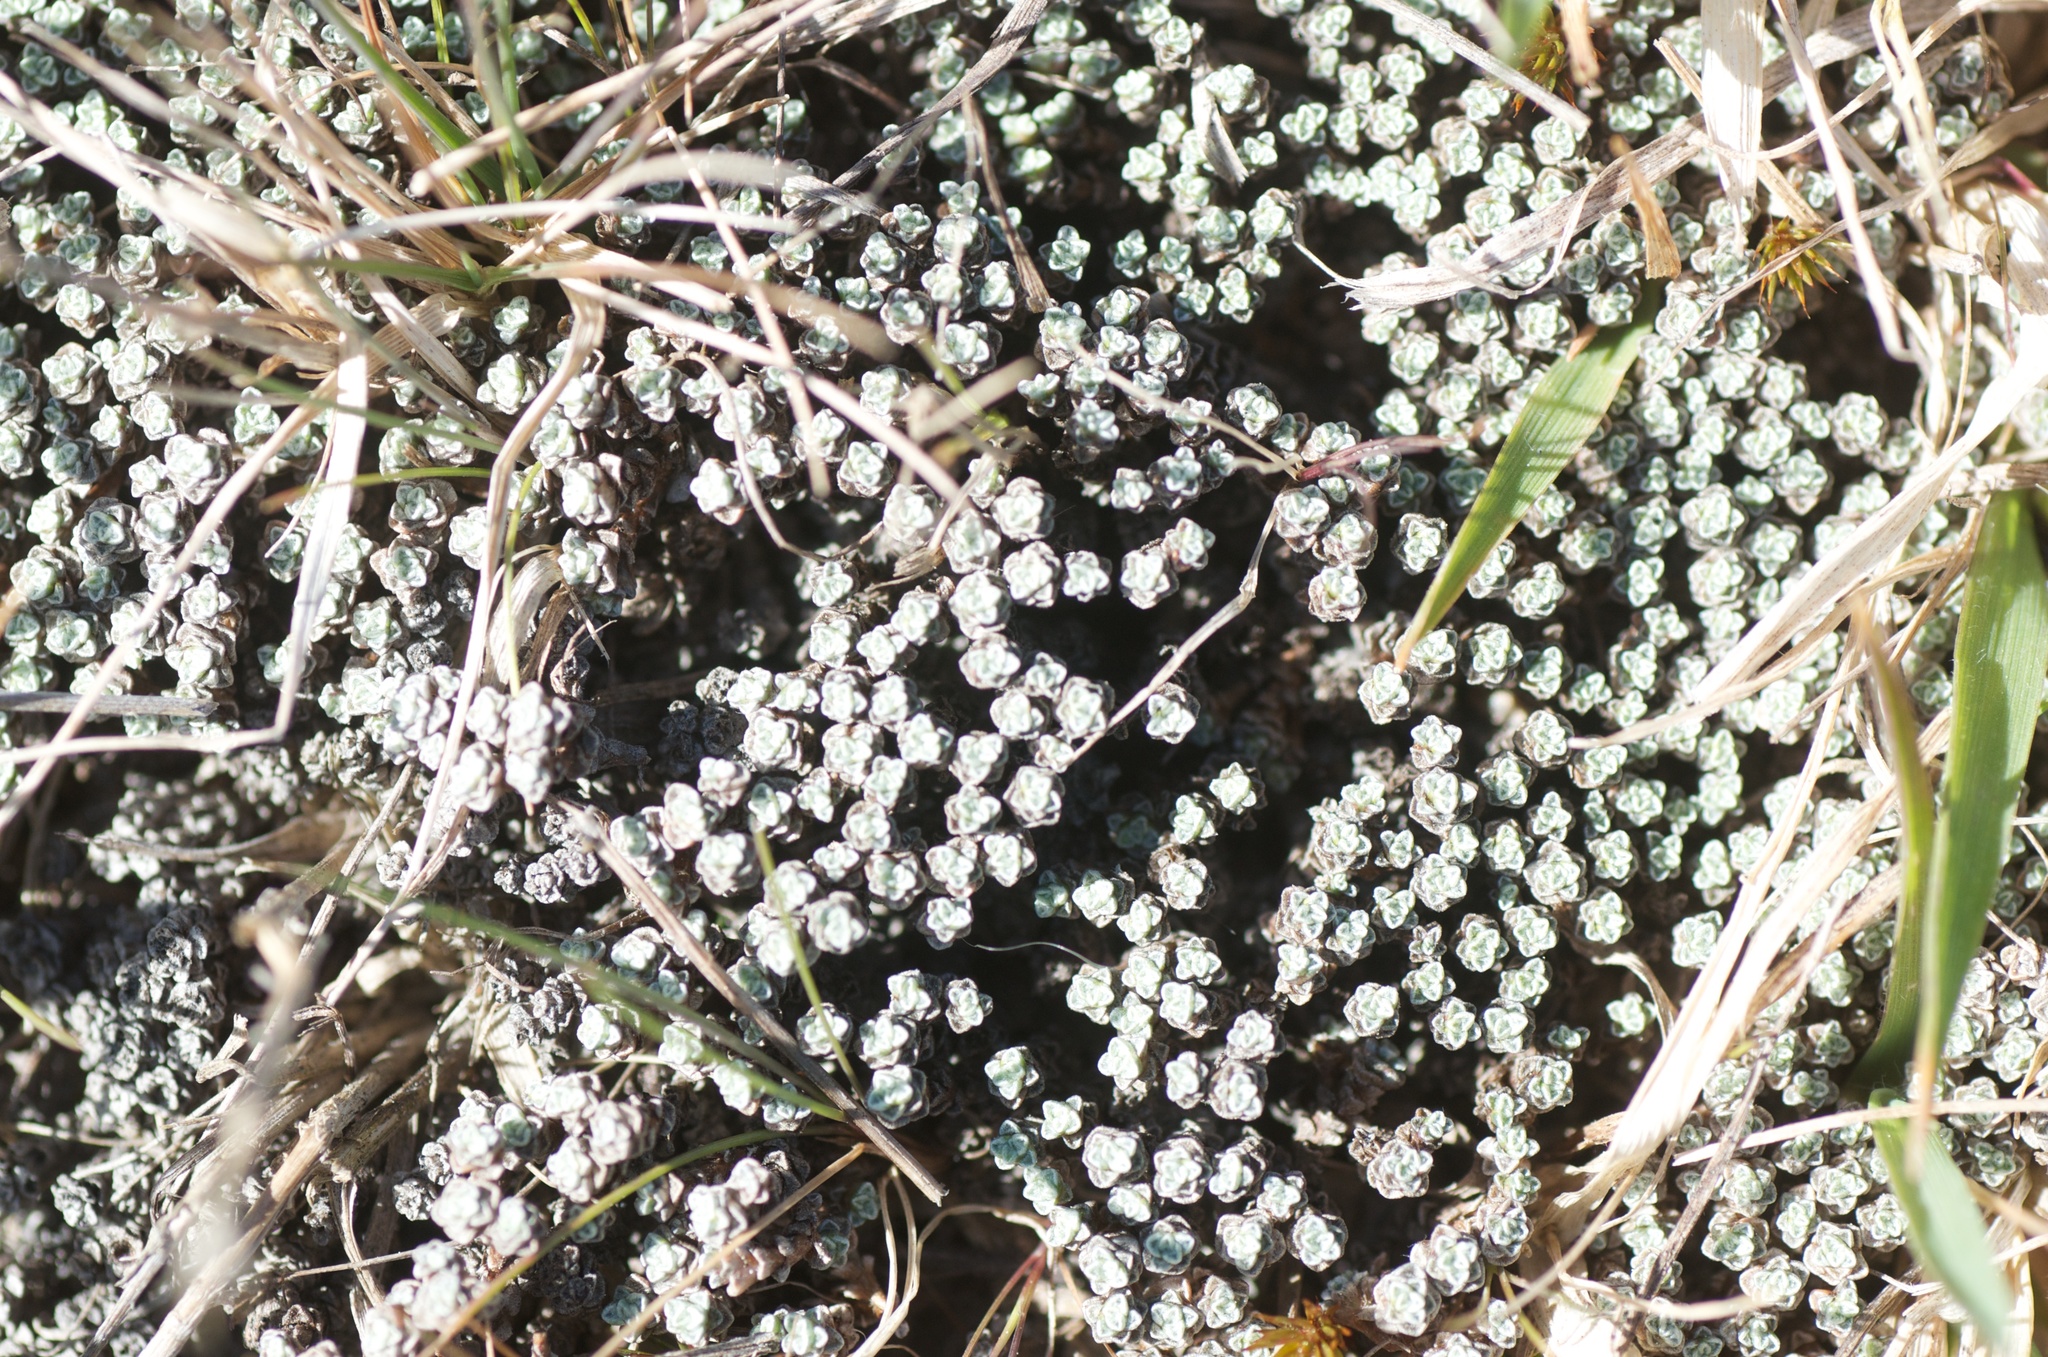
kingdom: Plantae
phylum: Tracheophyta
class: Magnoliopsida
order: Asterales
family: Asteraceae
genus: Raoulia
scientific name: Raoulia australis
